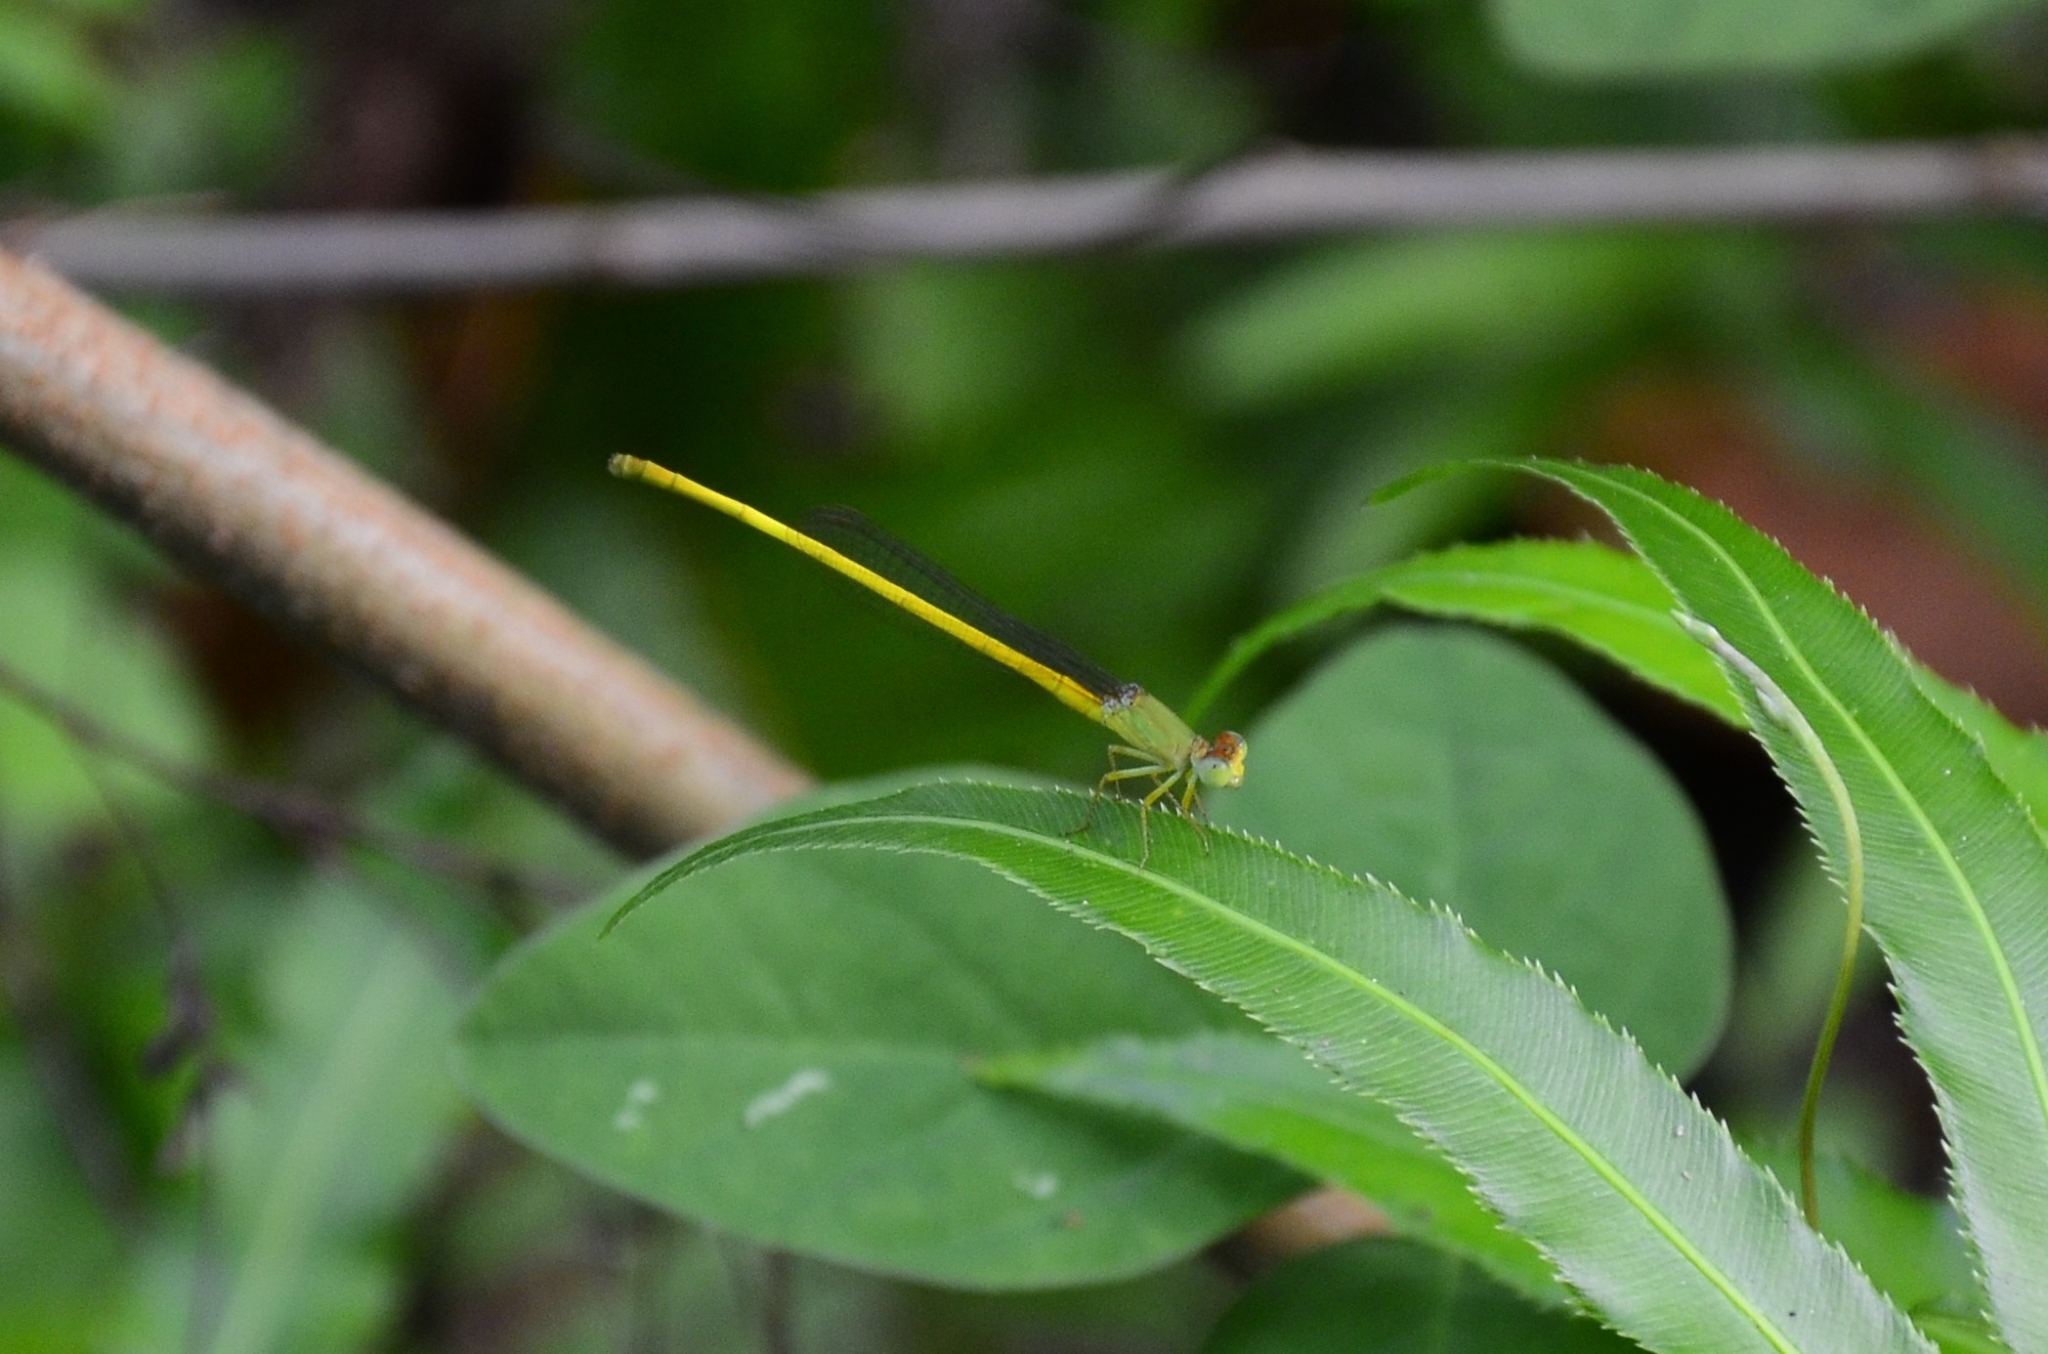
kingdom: Animalia
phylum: Arthropoda
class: Insecta
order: Odonata
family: Coenagrionidae
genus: Ceriagrion
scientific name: Ceriagrion coromandelianum
